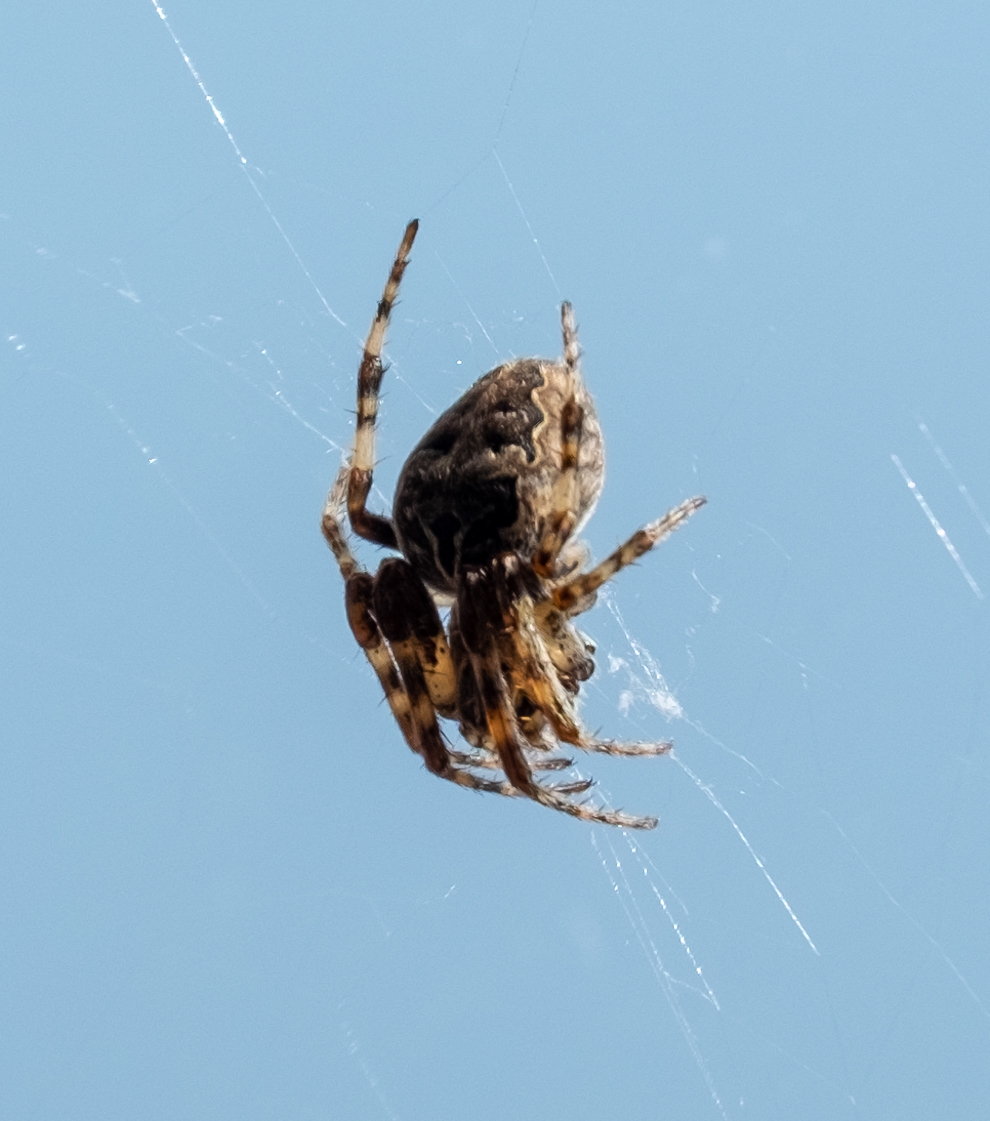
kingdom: Animalia
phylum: Arthropoda
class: Arachnida
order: Araneae
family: Araneidae
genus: Larinioides
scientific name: Larinioides sclopetarius
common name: Bridge orbweaver
